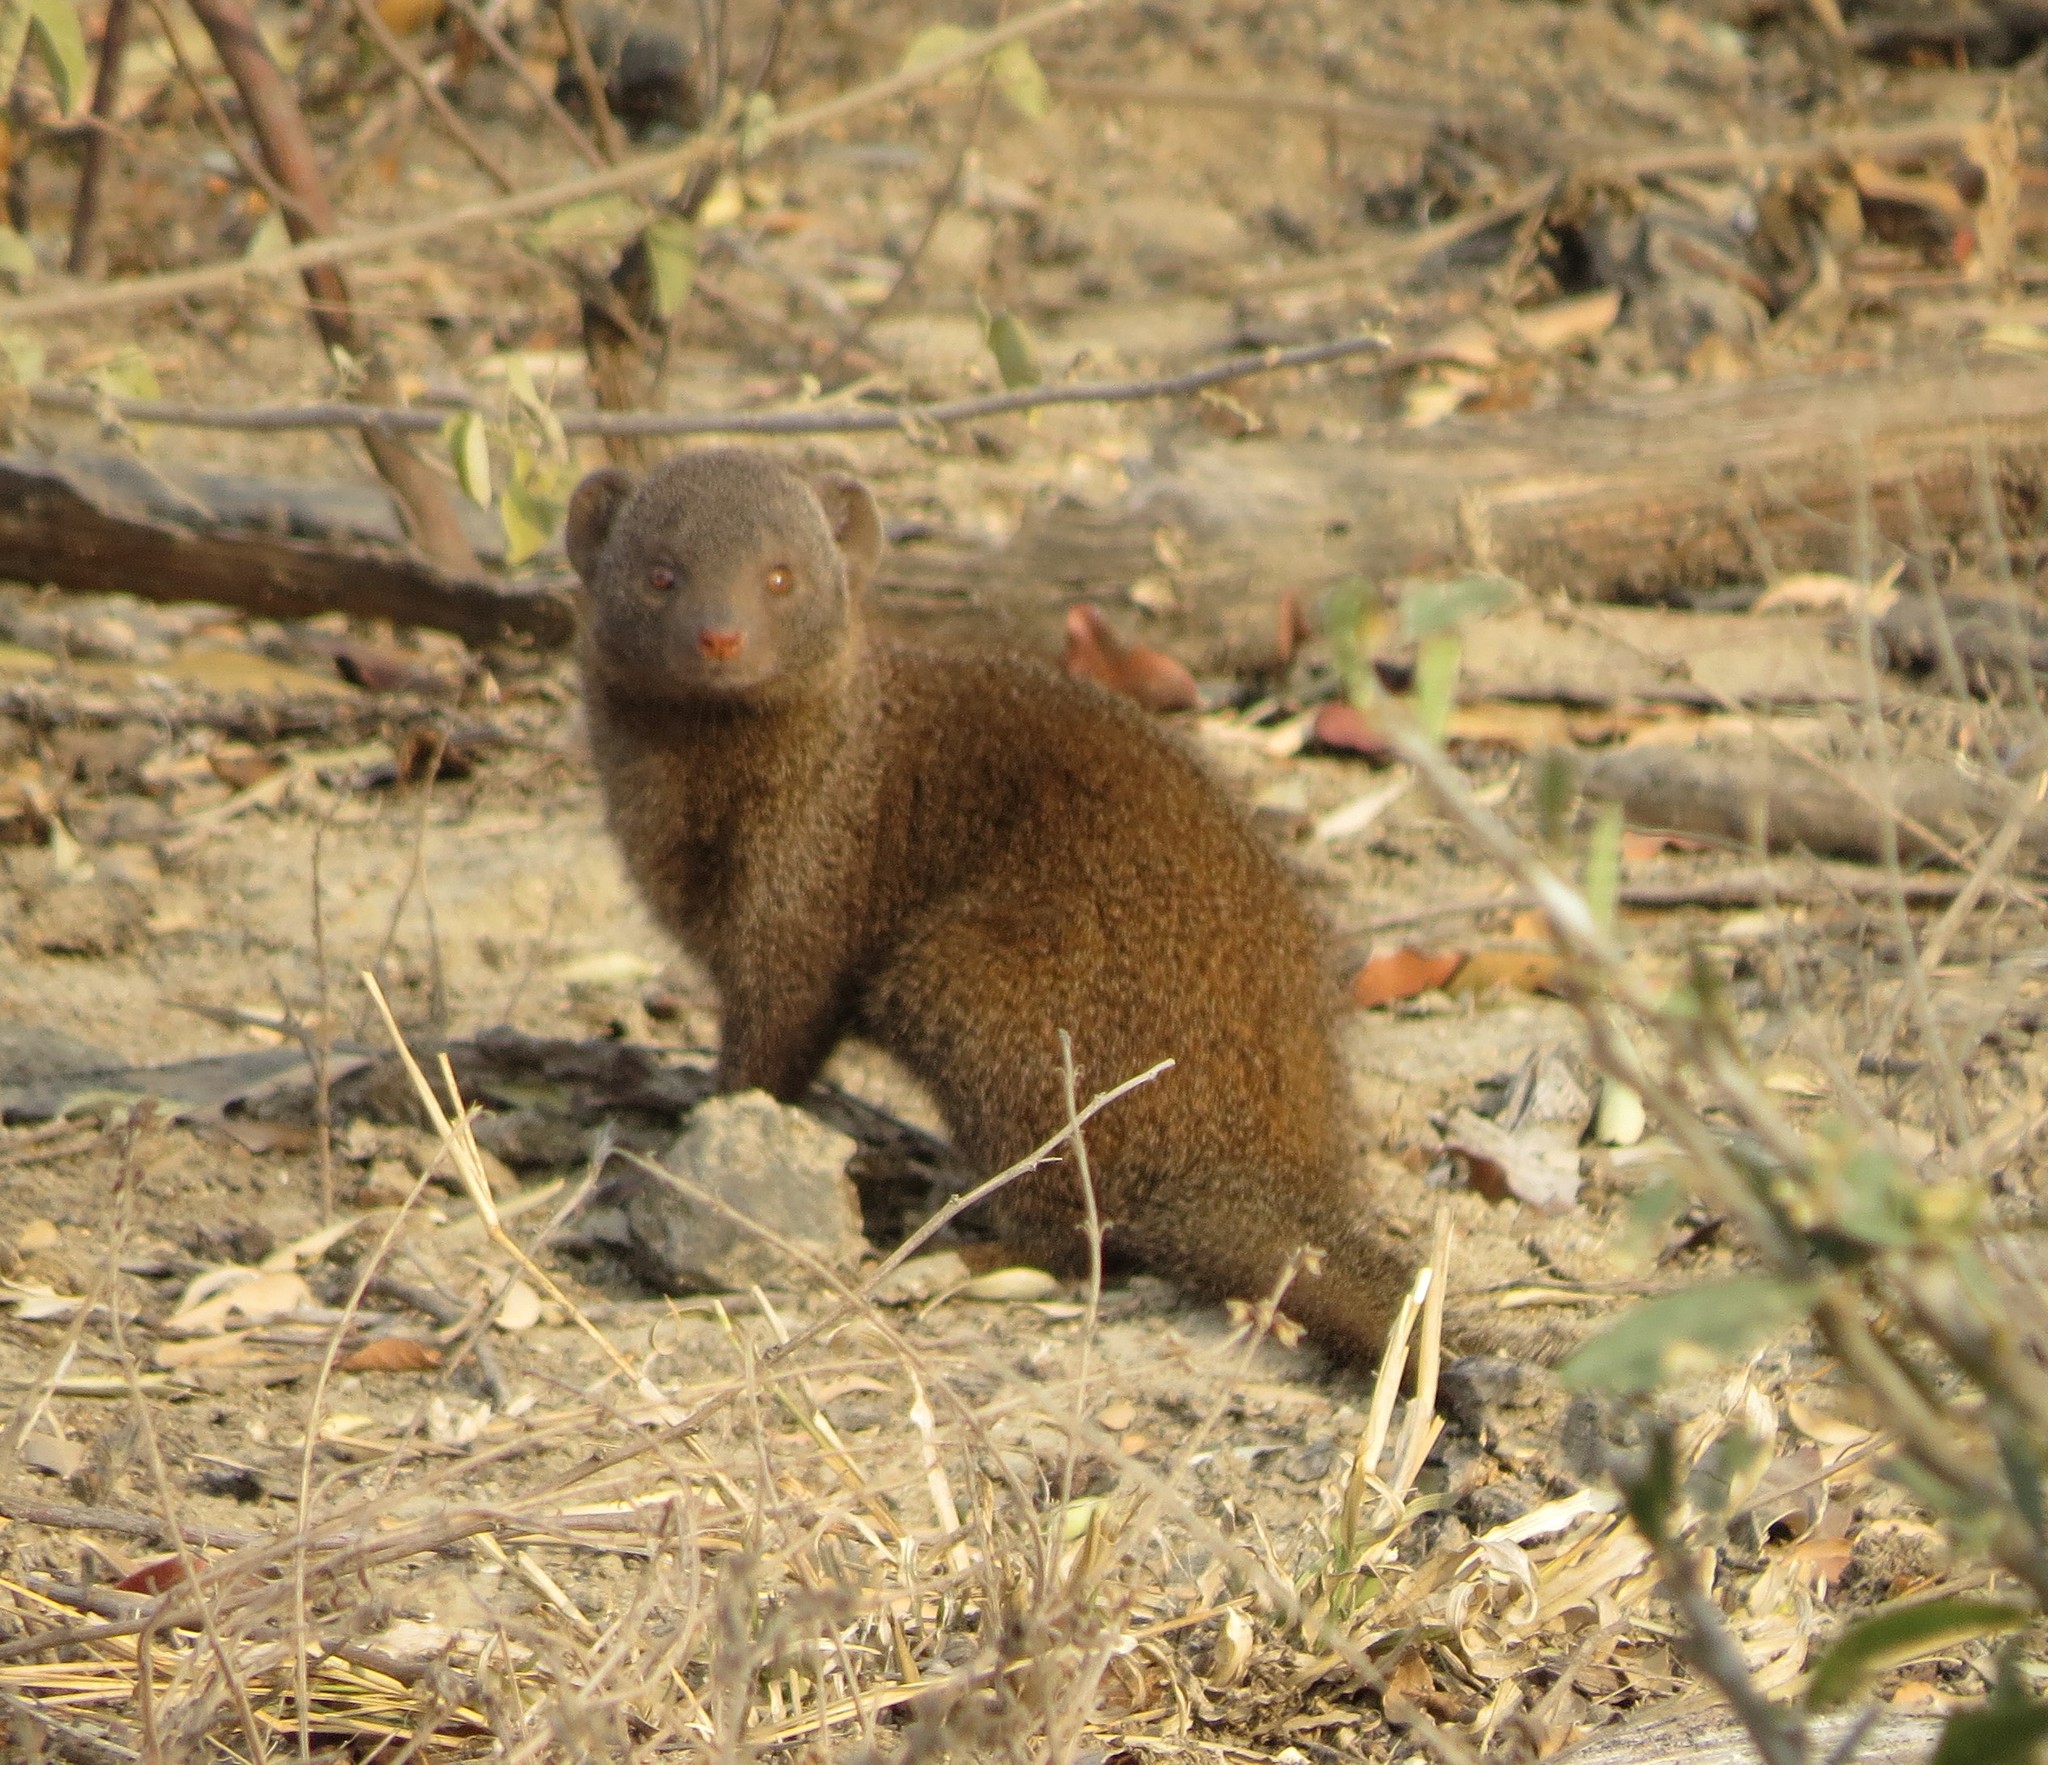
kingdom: Animalia
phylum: Chordata
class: Mammalia
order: Carnivora
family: Herpestidae
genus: Helogale
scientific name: Helogale parvula
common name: Common dwarf mongoose
